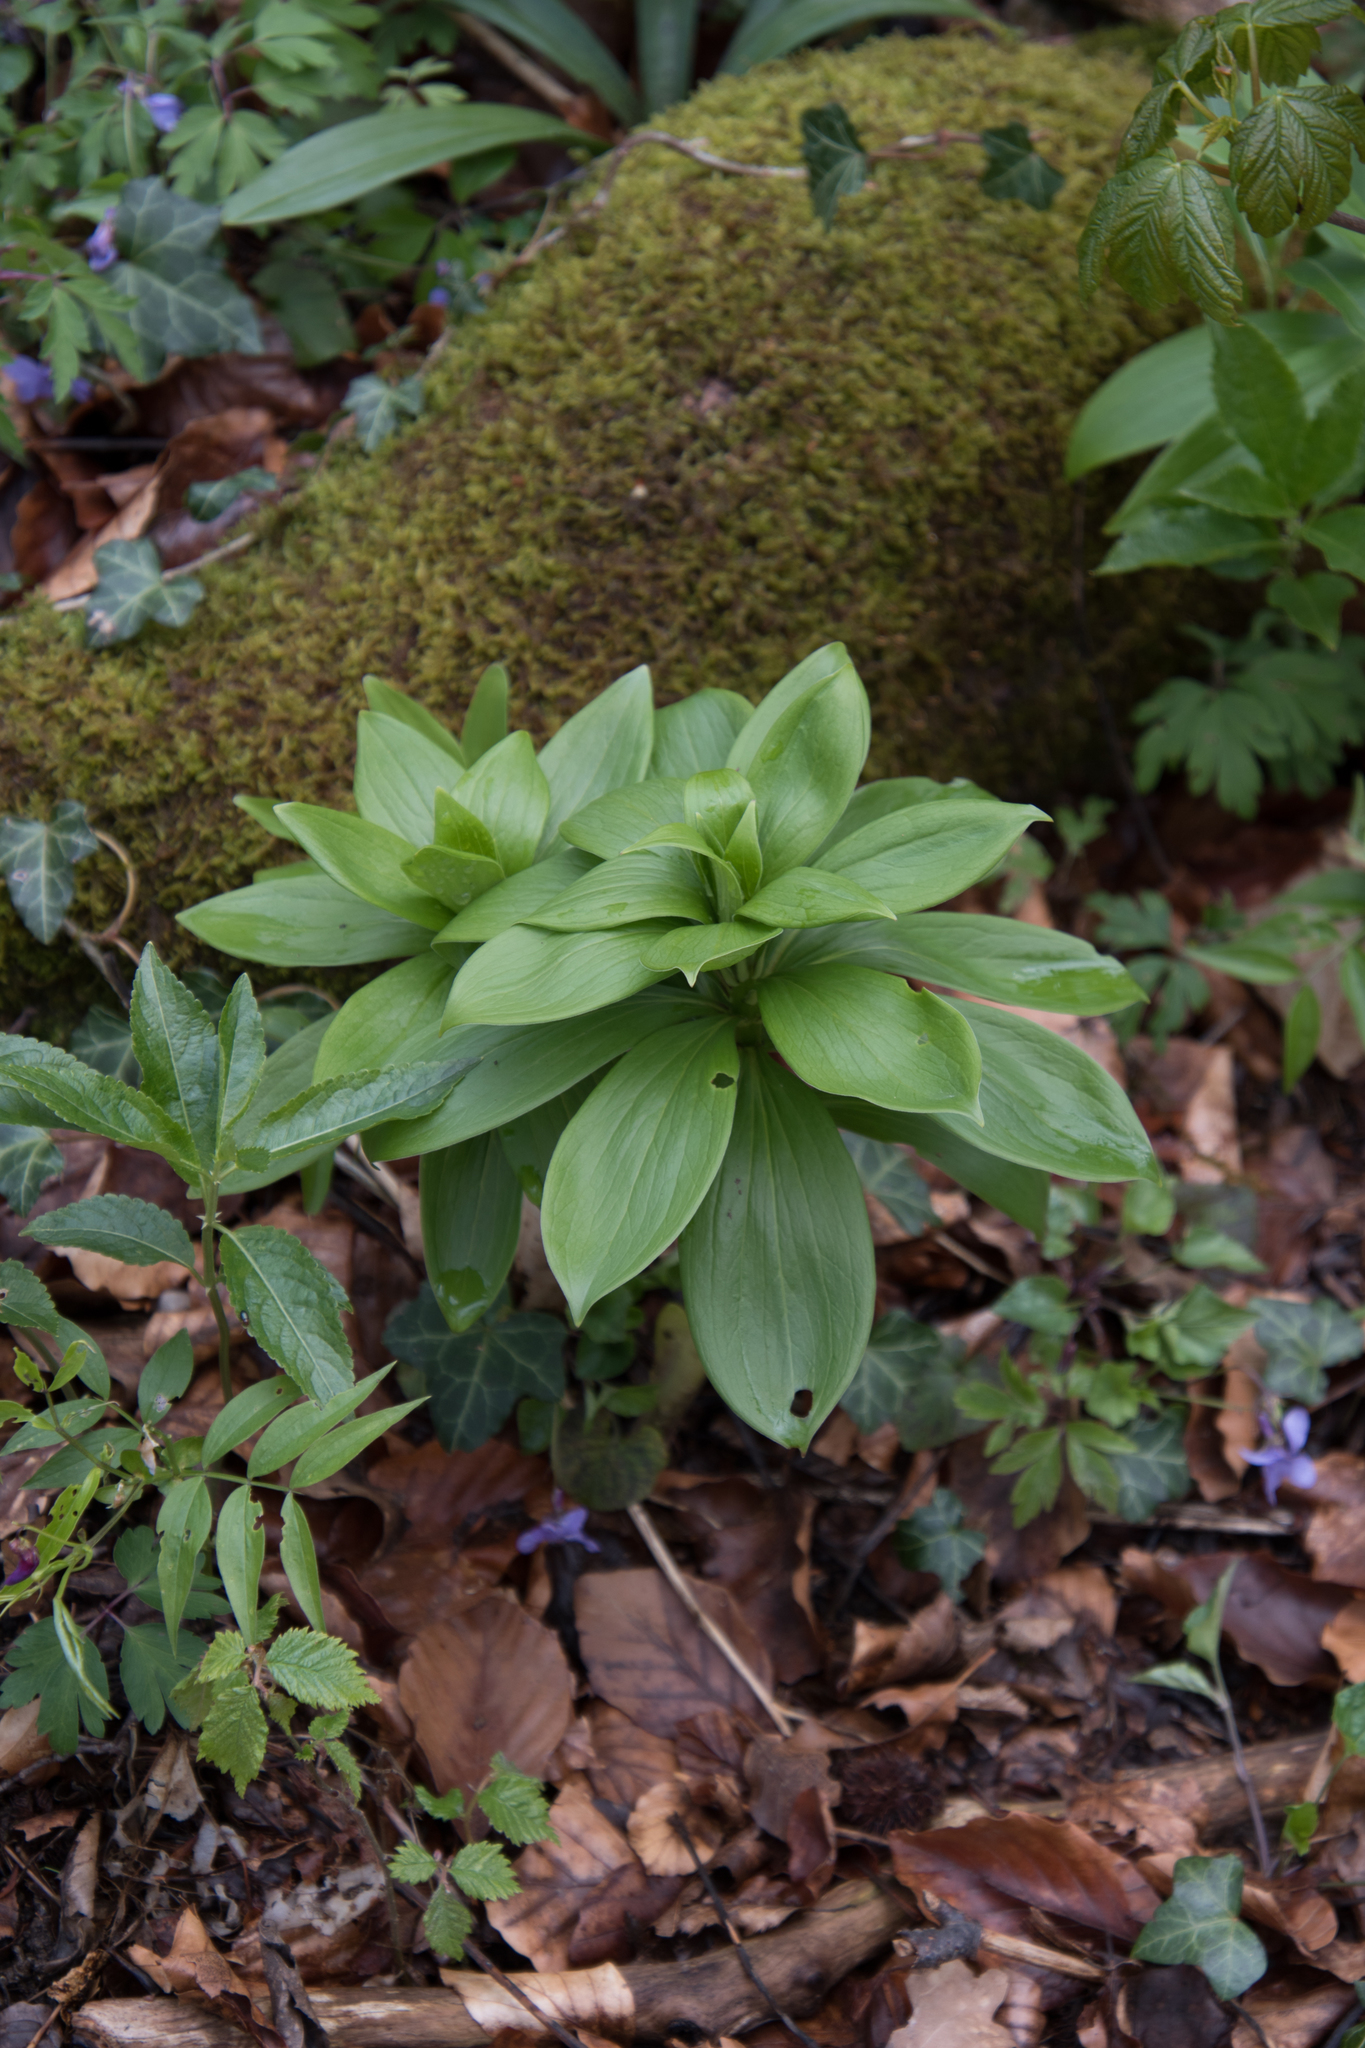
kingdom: Plantae
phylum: Tracheophyta
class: Liliopsida
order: Liliales
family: Liliaceae
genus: Lilium
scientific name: Lilium martagon
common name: Martagon lily
